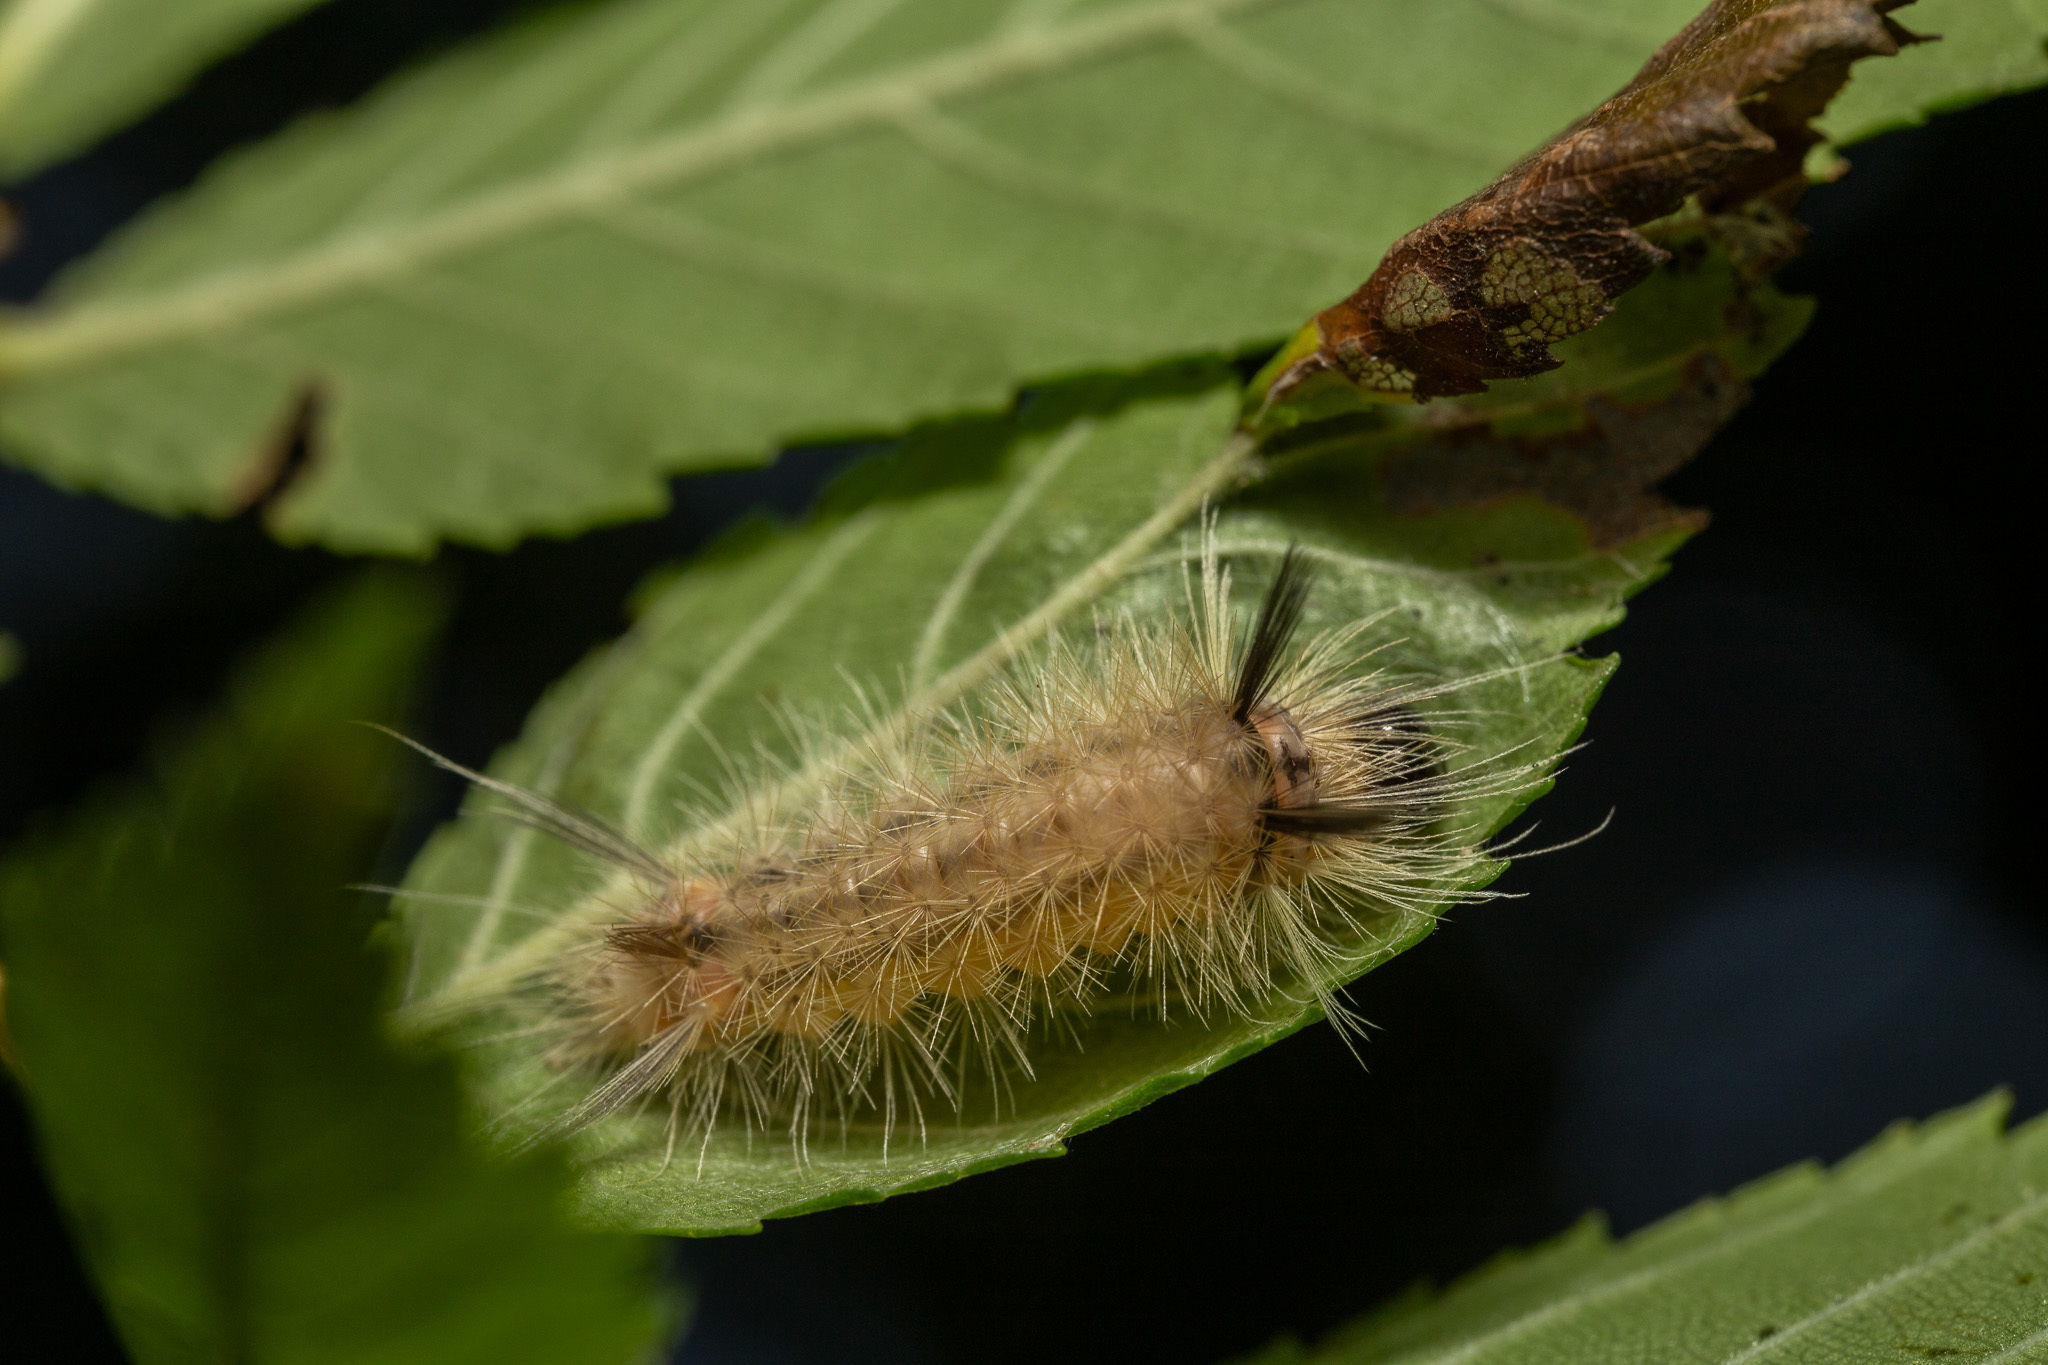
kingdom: Animalia
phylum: Arthropoda
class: Insecta
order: Lepidoptera
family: Erebidae
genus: Halysidota
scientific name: Halysidota tessellaris
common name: Banded tussock moth
